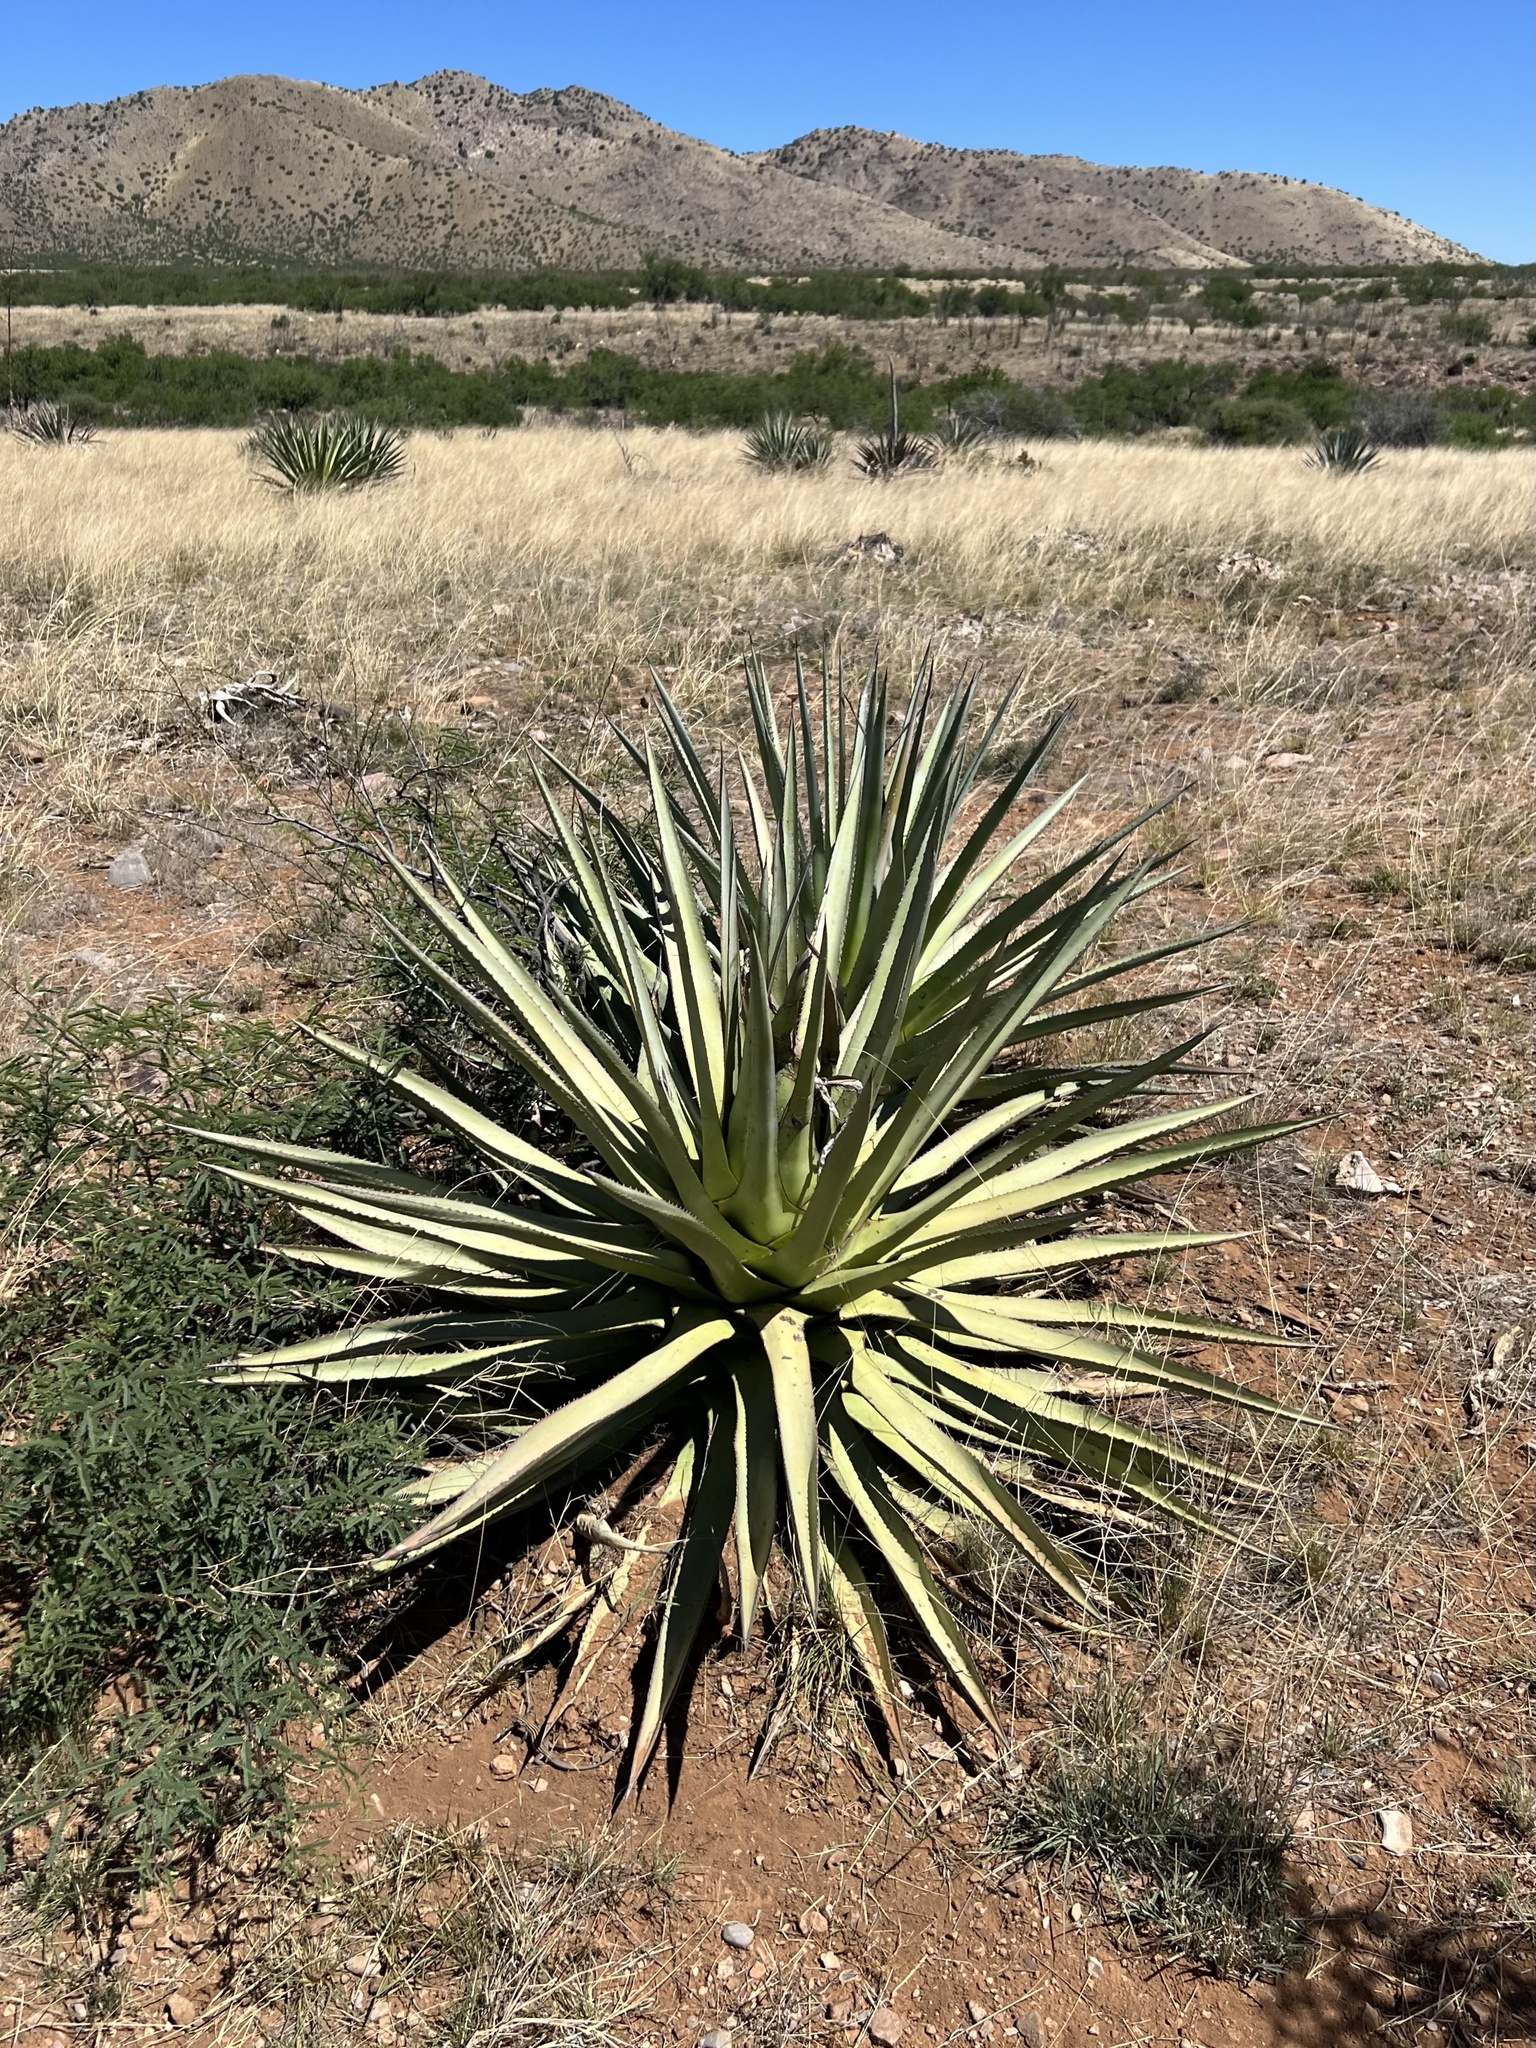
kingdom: Plantae
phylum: Tracheophyta
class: Liliopsida
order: Asparagales
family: Asparagaceae
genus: Agave
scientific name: Agave palmeri
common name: Palmer agave
